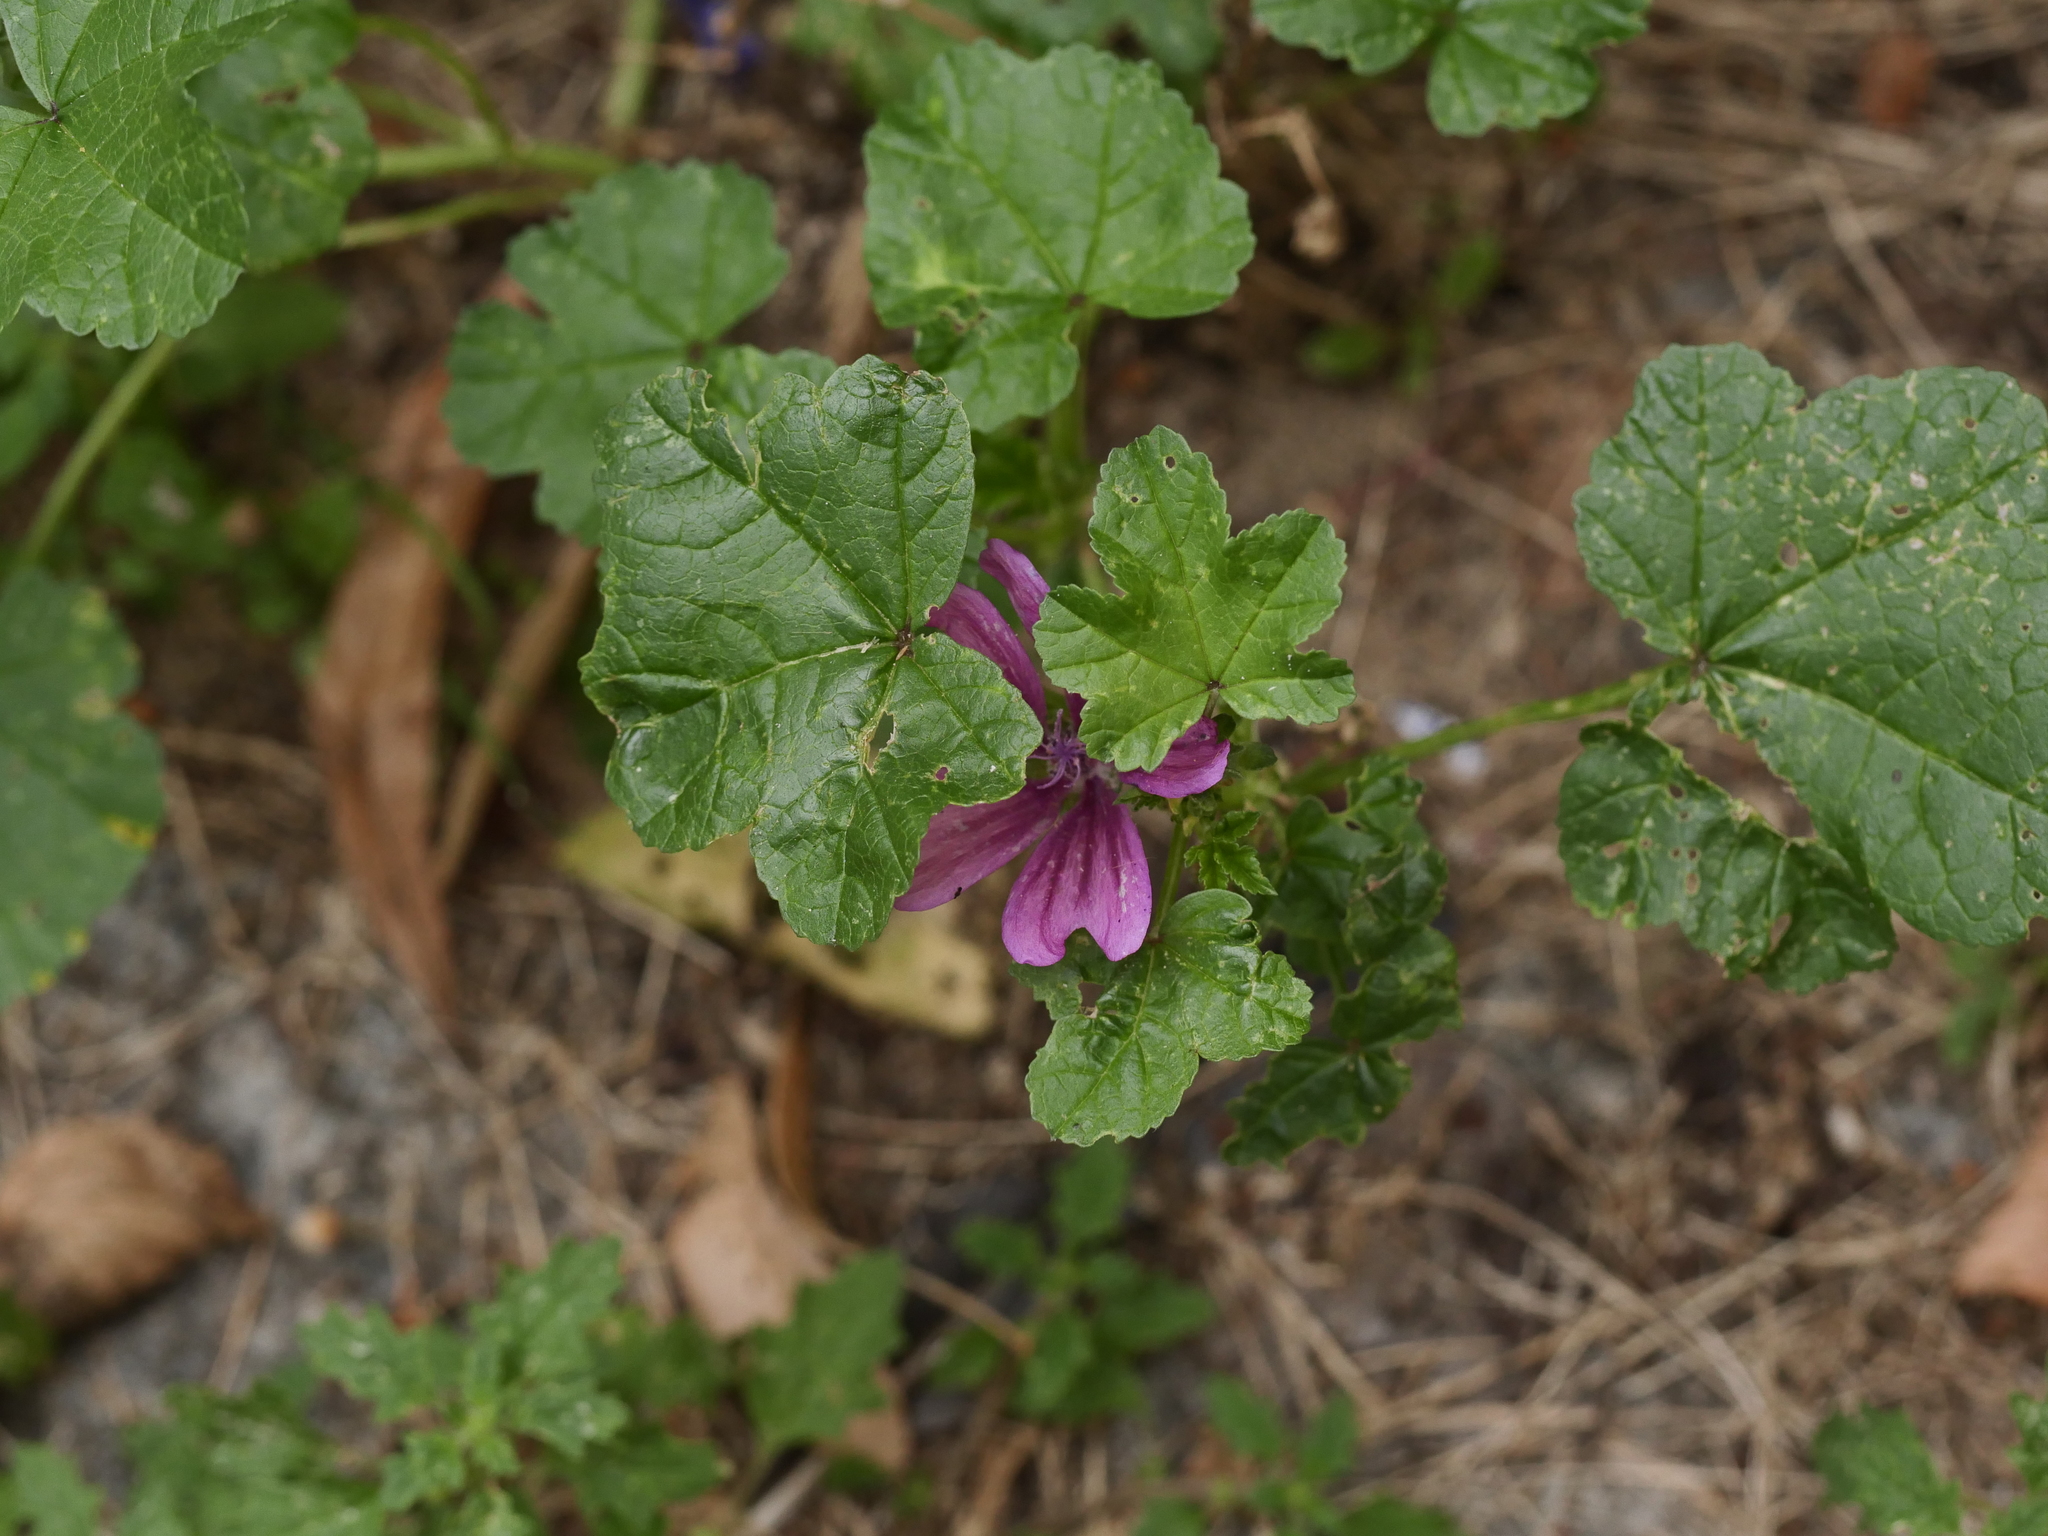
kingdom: Plantae
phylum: Tracheophyta
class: Magnoliopsida
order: Malvales
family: Malvaceae
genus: Malva
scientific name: Malva sylvestris
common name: Common mallow
